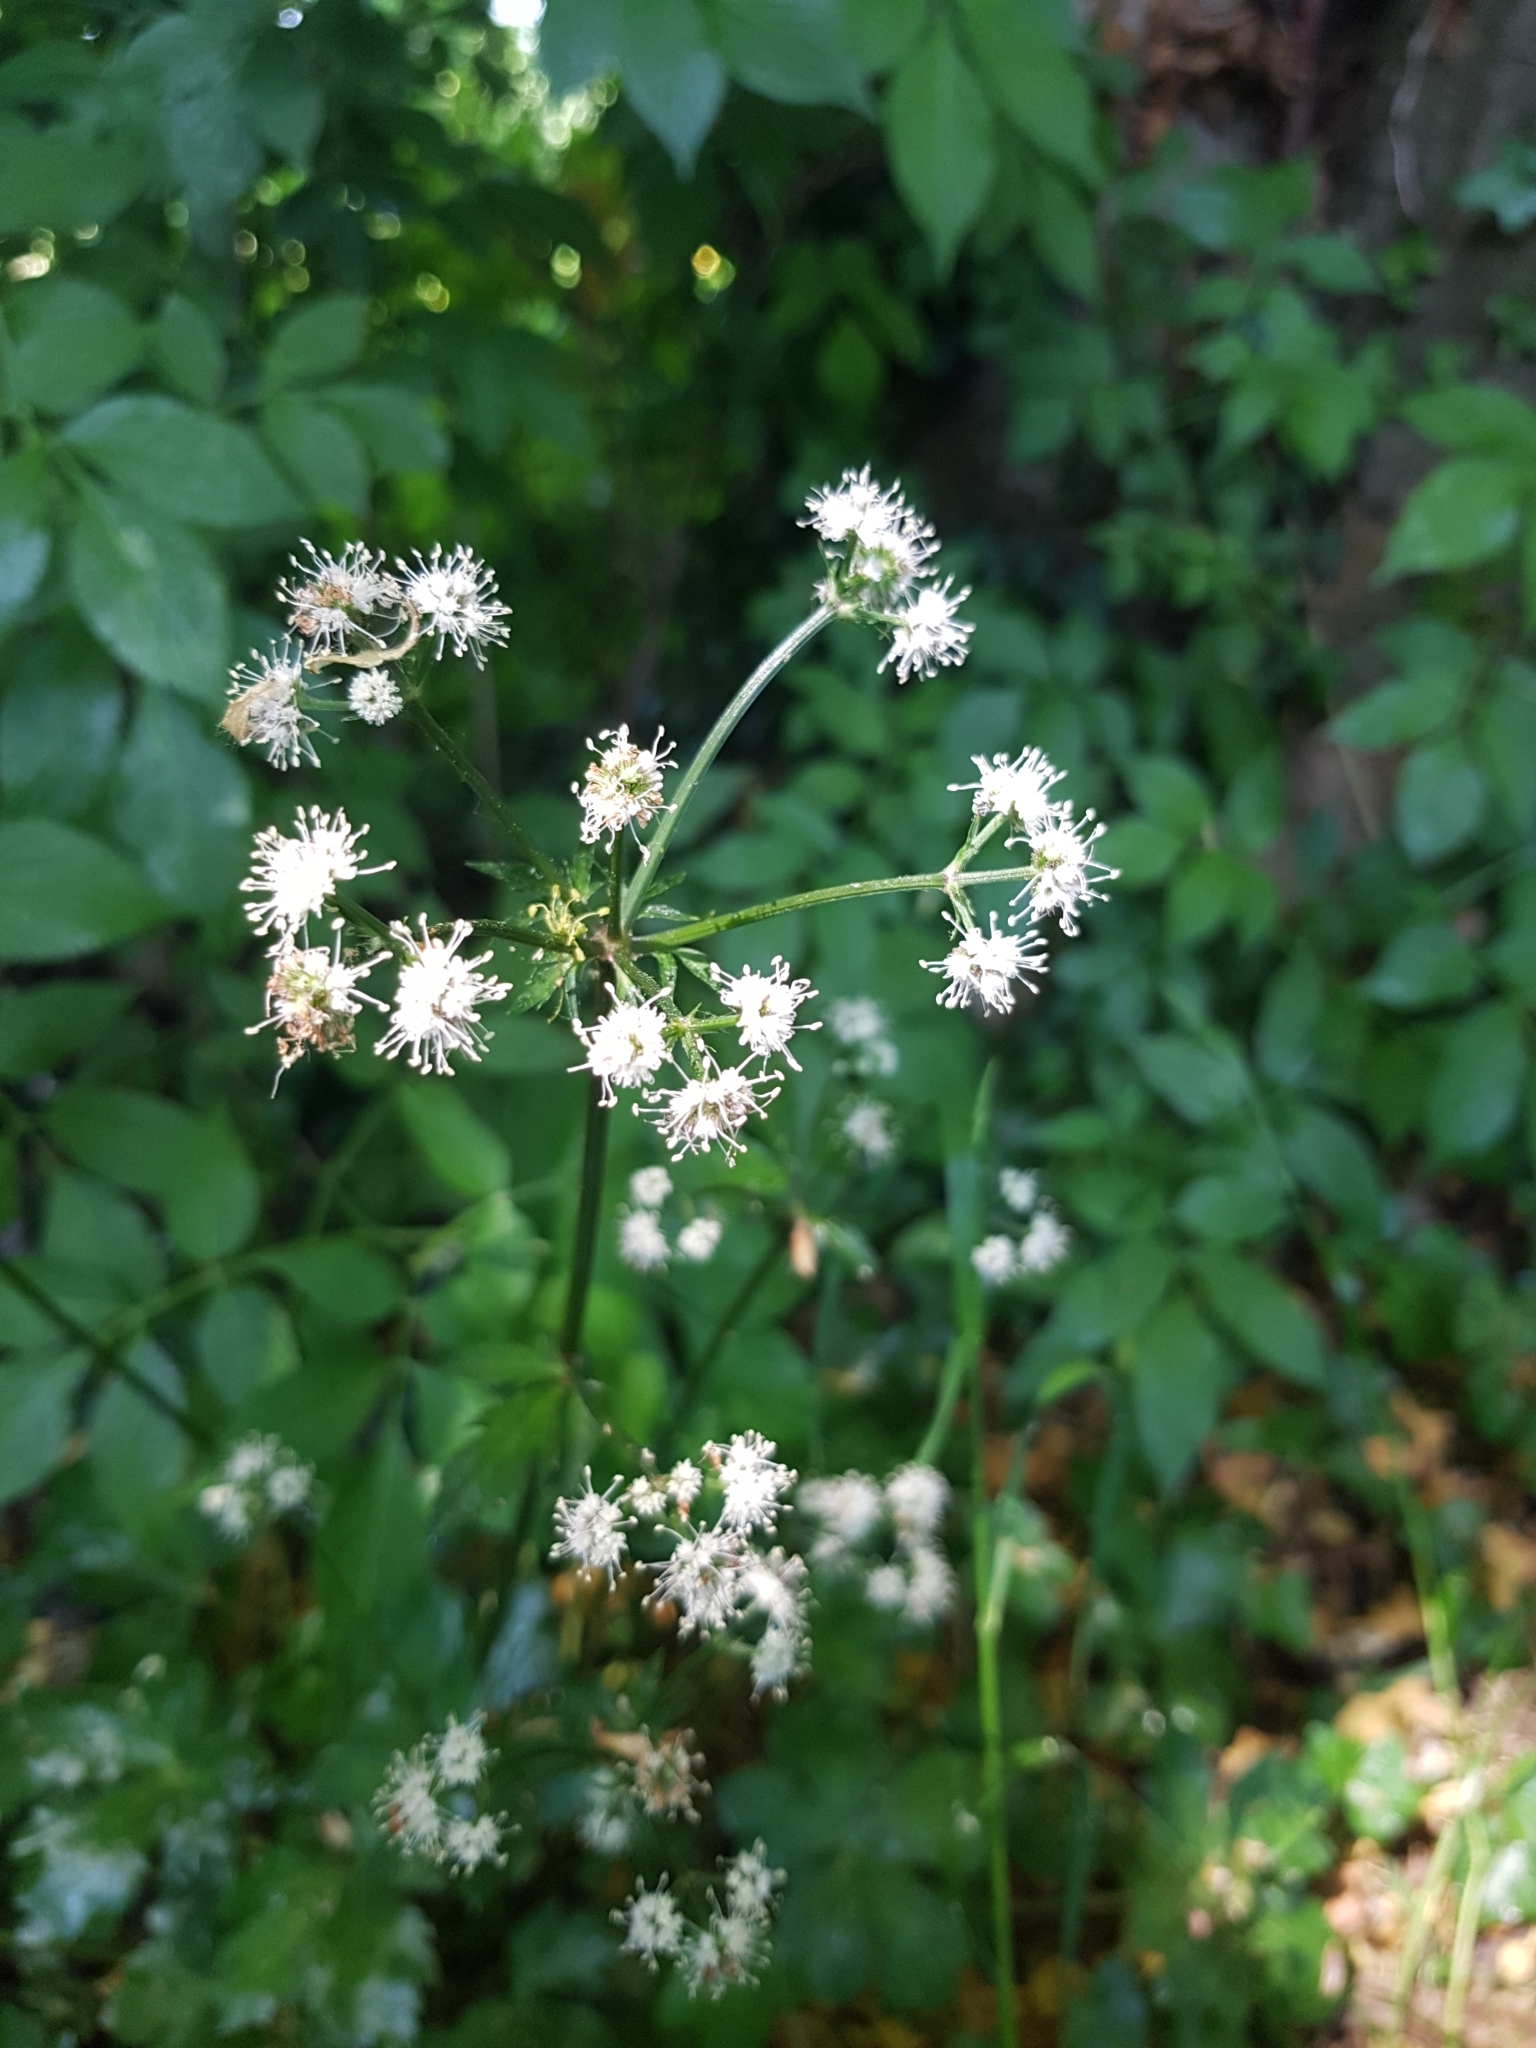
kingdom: Plantae
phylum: Tracheophyta
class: Magnoliopsida
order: Apiales
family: Apiaceae
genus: Sanicula
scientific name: Sanicula europaea
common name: Sanicle
